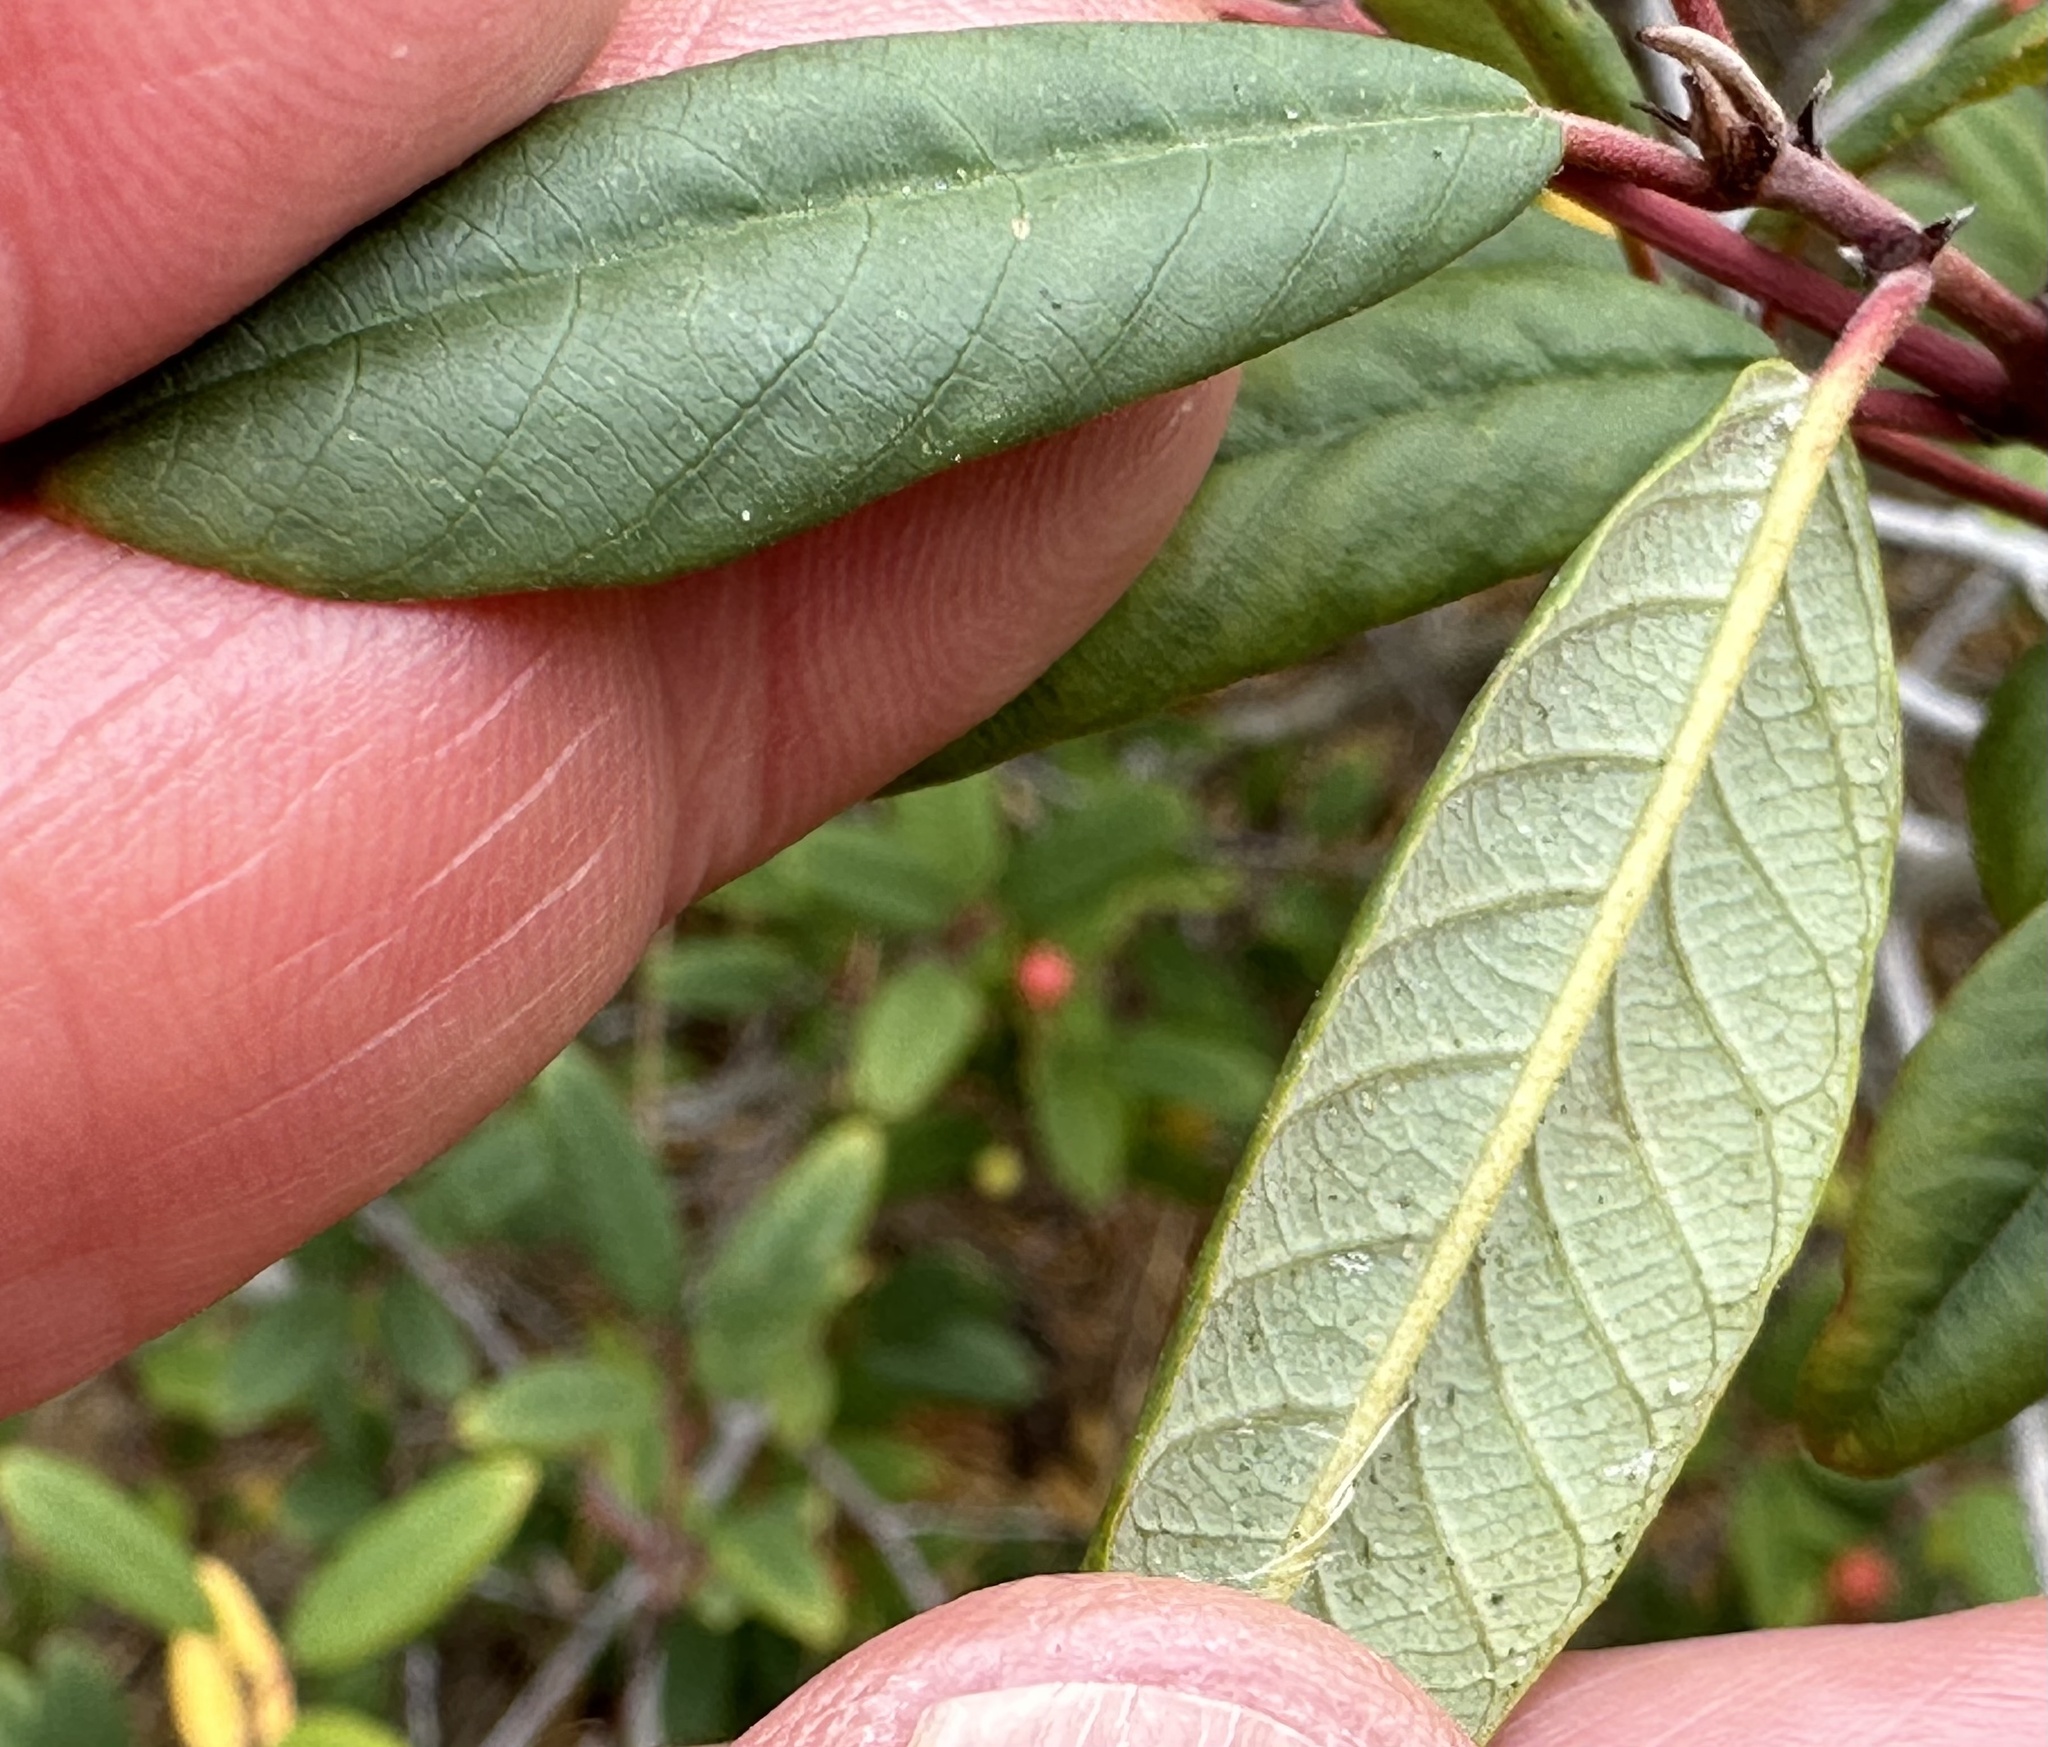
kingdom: Plantae
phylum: Tracheophyta
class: Magnoliopsida
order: Rosales
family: Rhamnaceae
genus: Frangula
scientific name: Frangula californica
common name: California buckthorn
